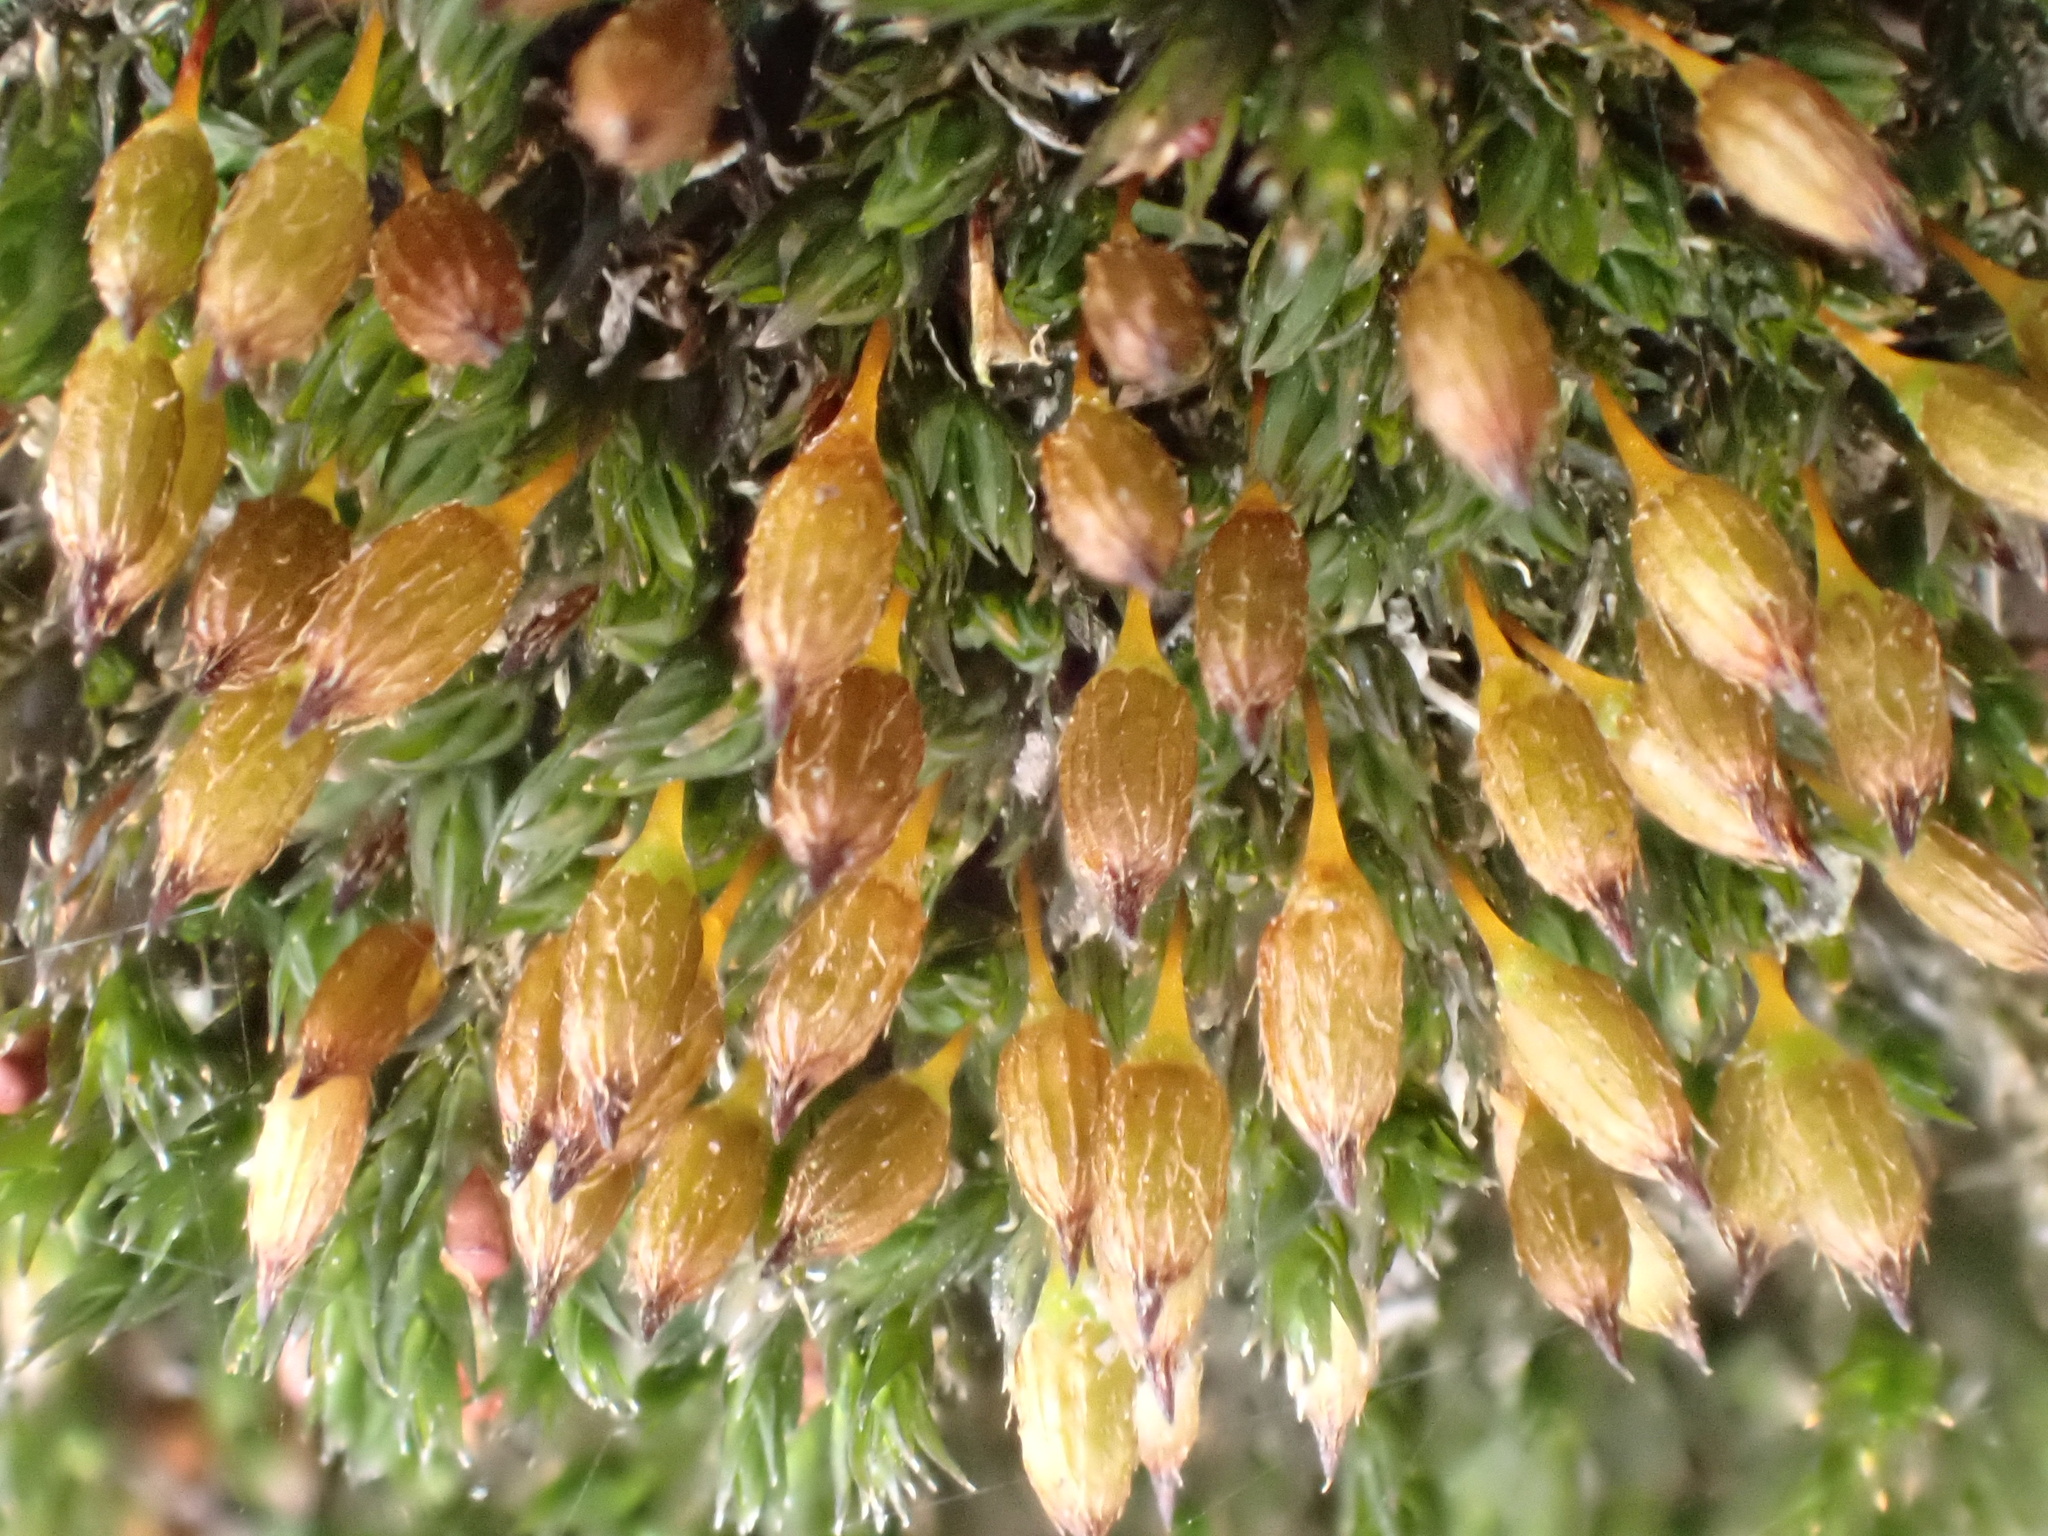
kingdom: Plantae
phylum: Bryophyta
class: Bryopsida
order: Orthotrichales
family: Orthotrichaceae
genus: Orthotrichum
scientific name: Orthotrichum anomalum
